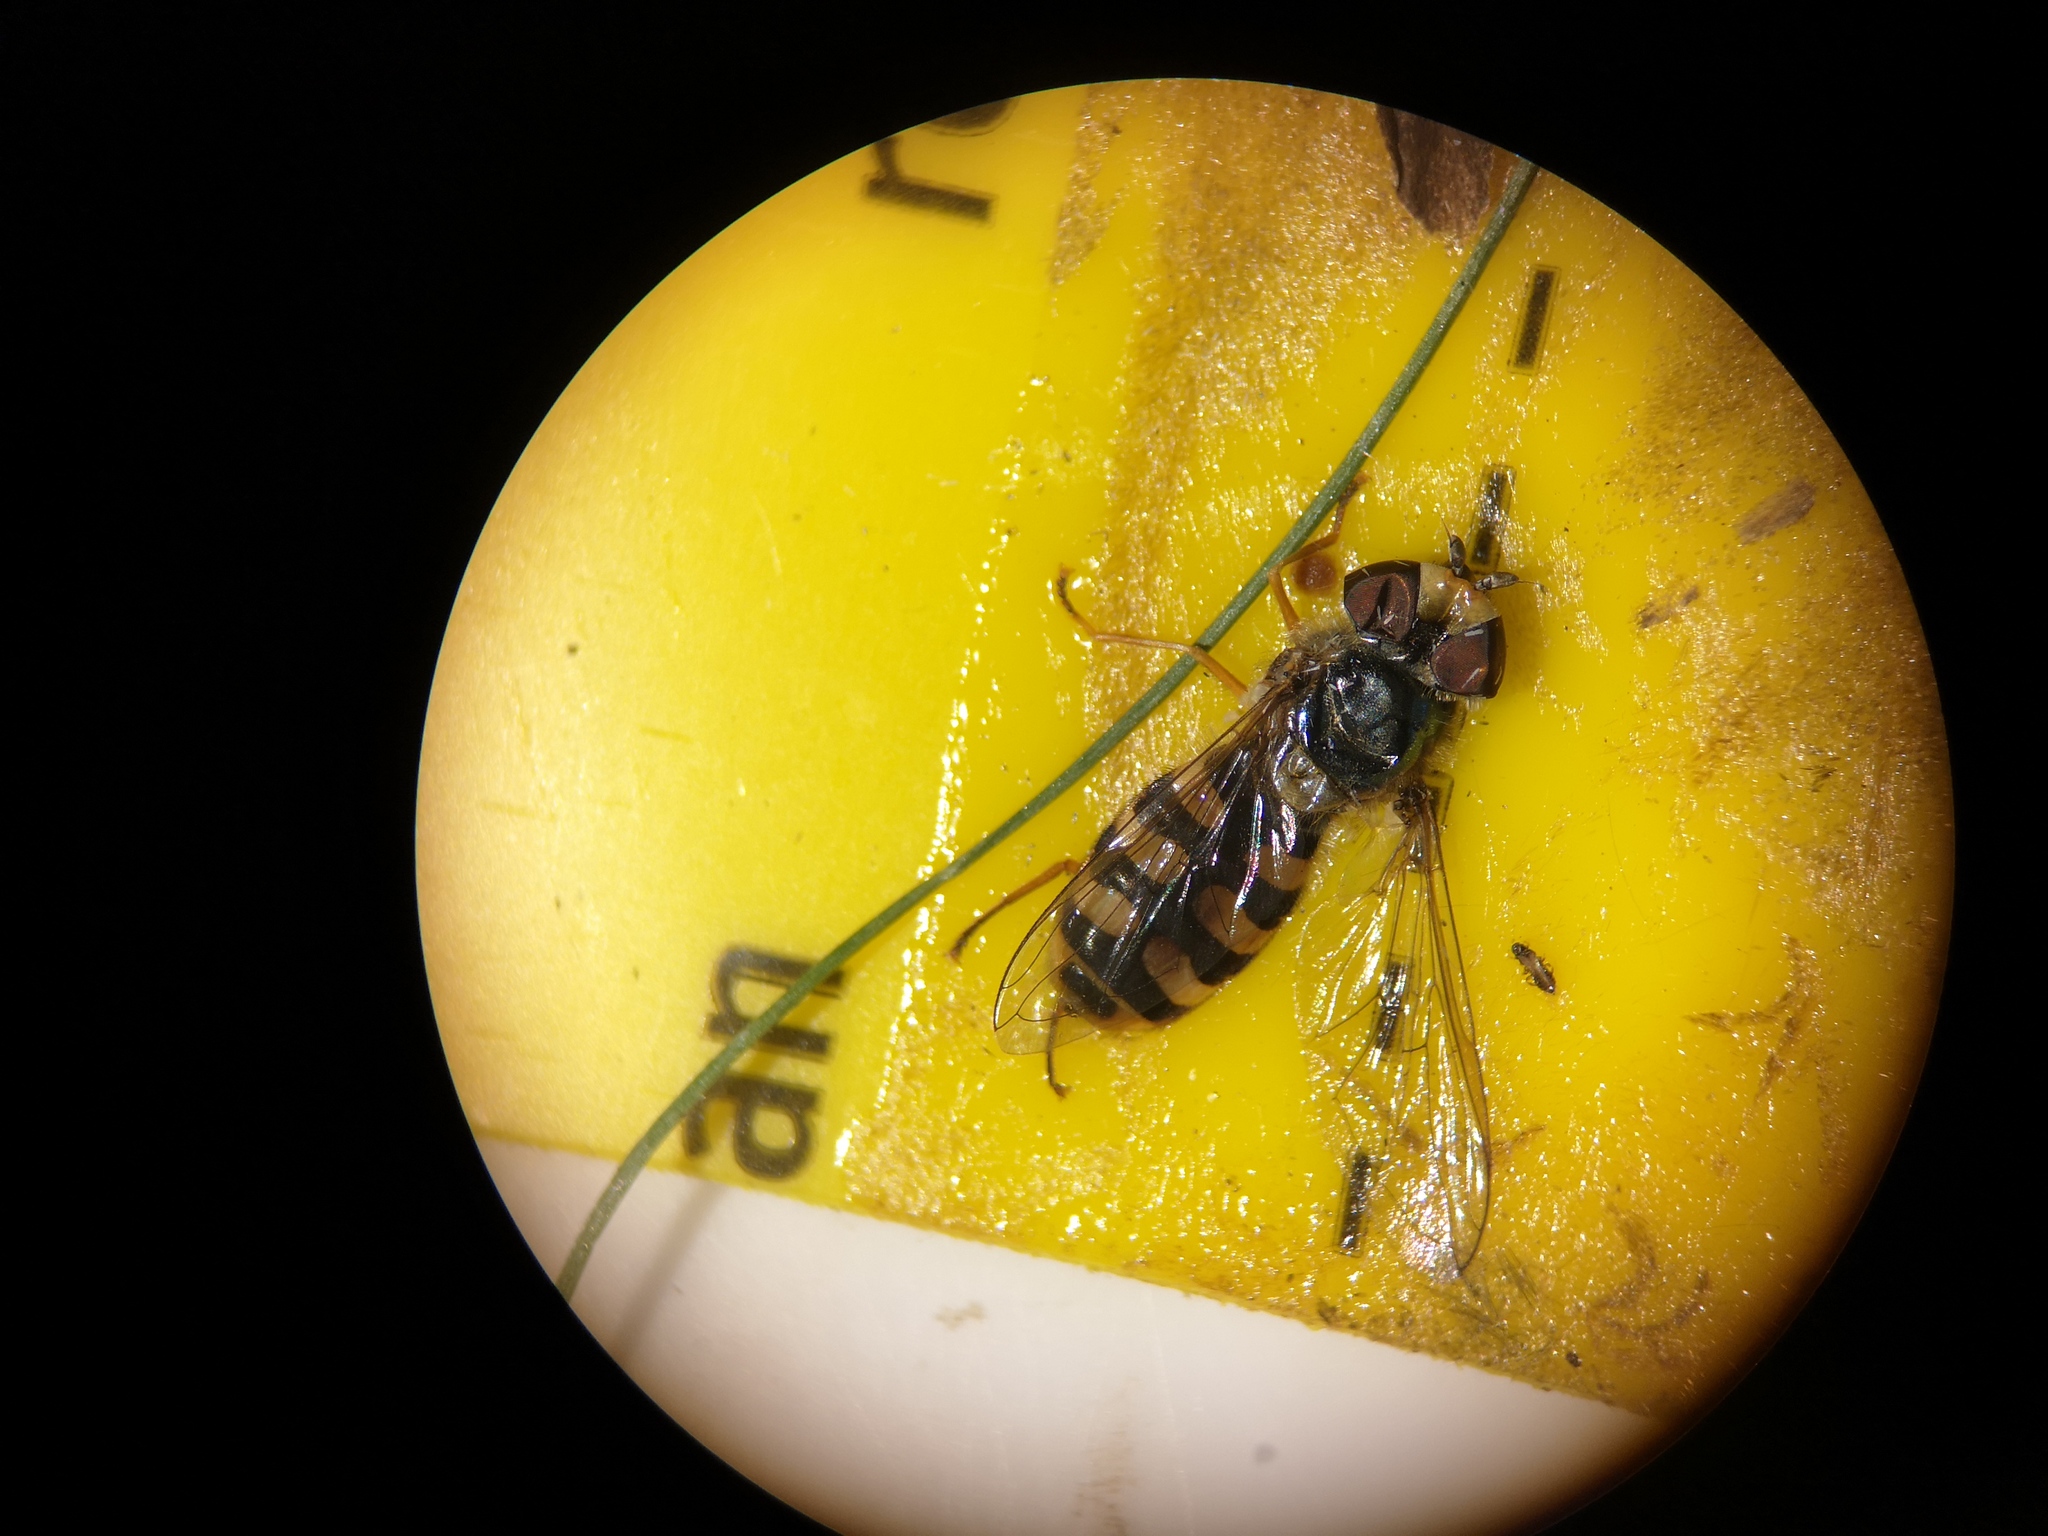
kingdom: Animalia
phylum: Arthropoda
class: Insecta
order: Diptera
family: Syrphidae
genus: Eupeodes
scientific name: Eupeodes corollae
